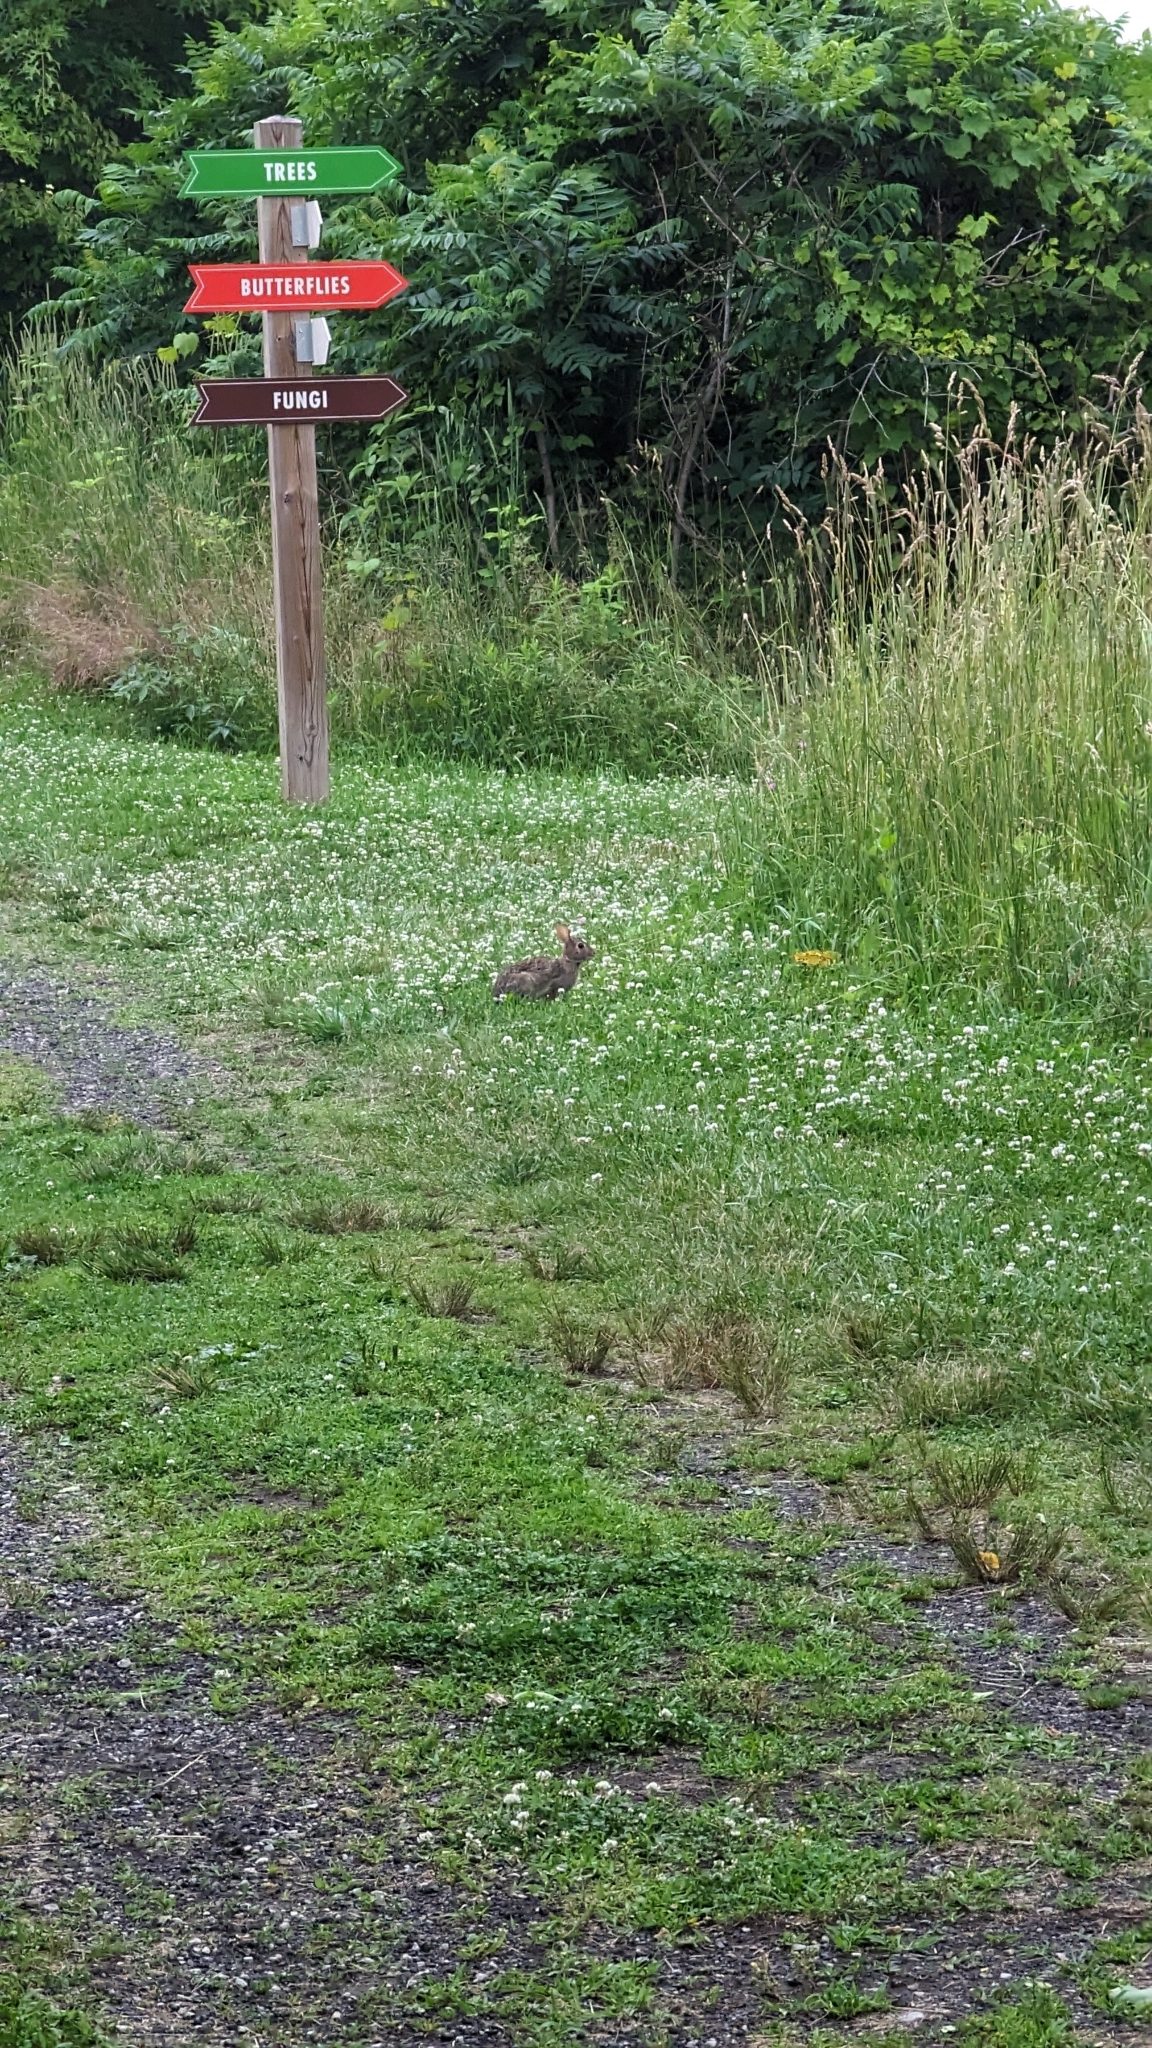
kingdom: Animalia
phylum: Chordata
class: Mammalia
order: Lagomorpha
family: Leporidae
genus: Sylvilagus
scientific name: Sylvilagus floridanus
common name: Eastern cottontail
